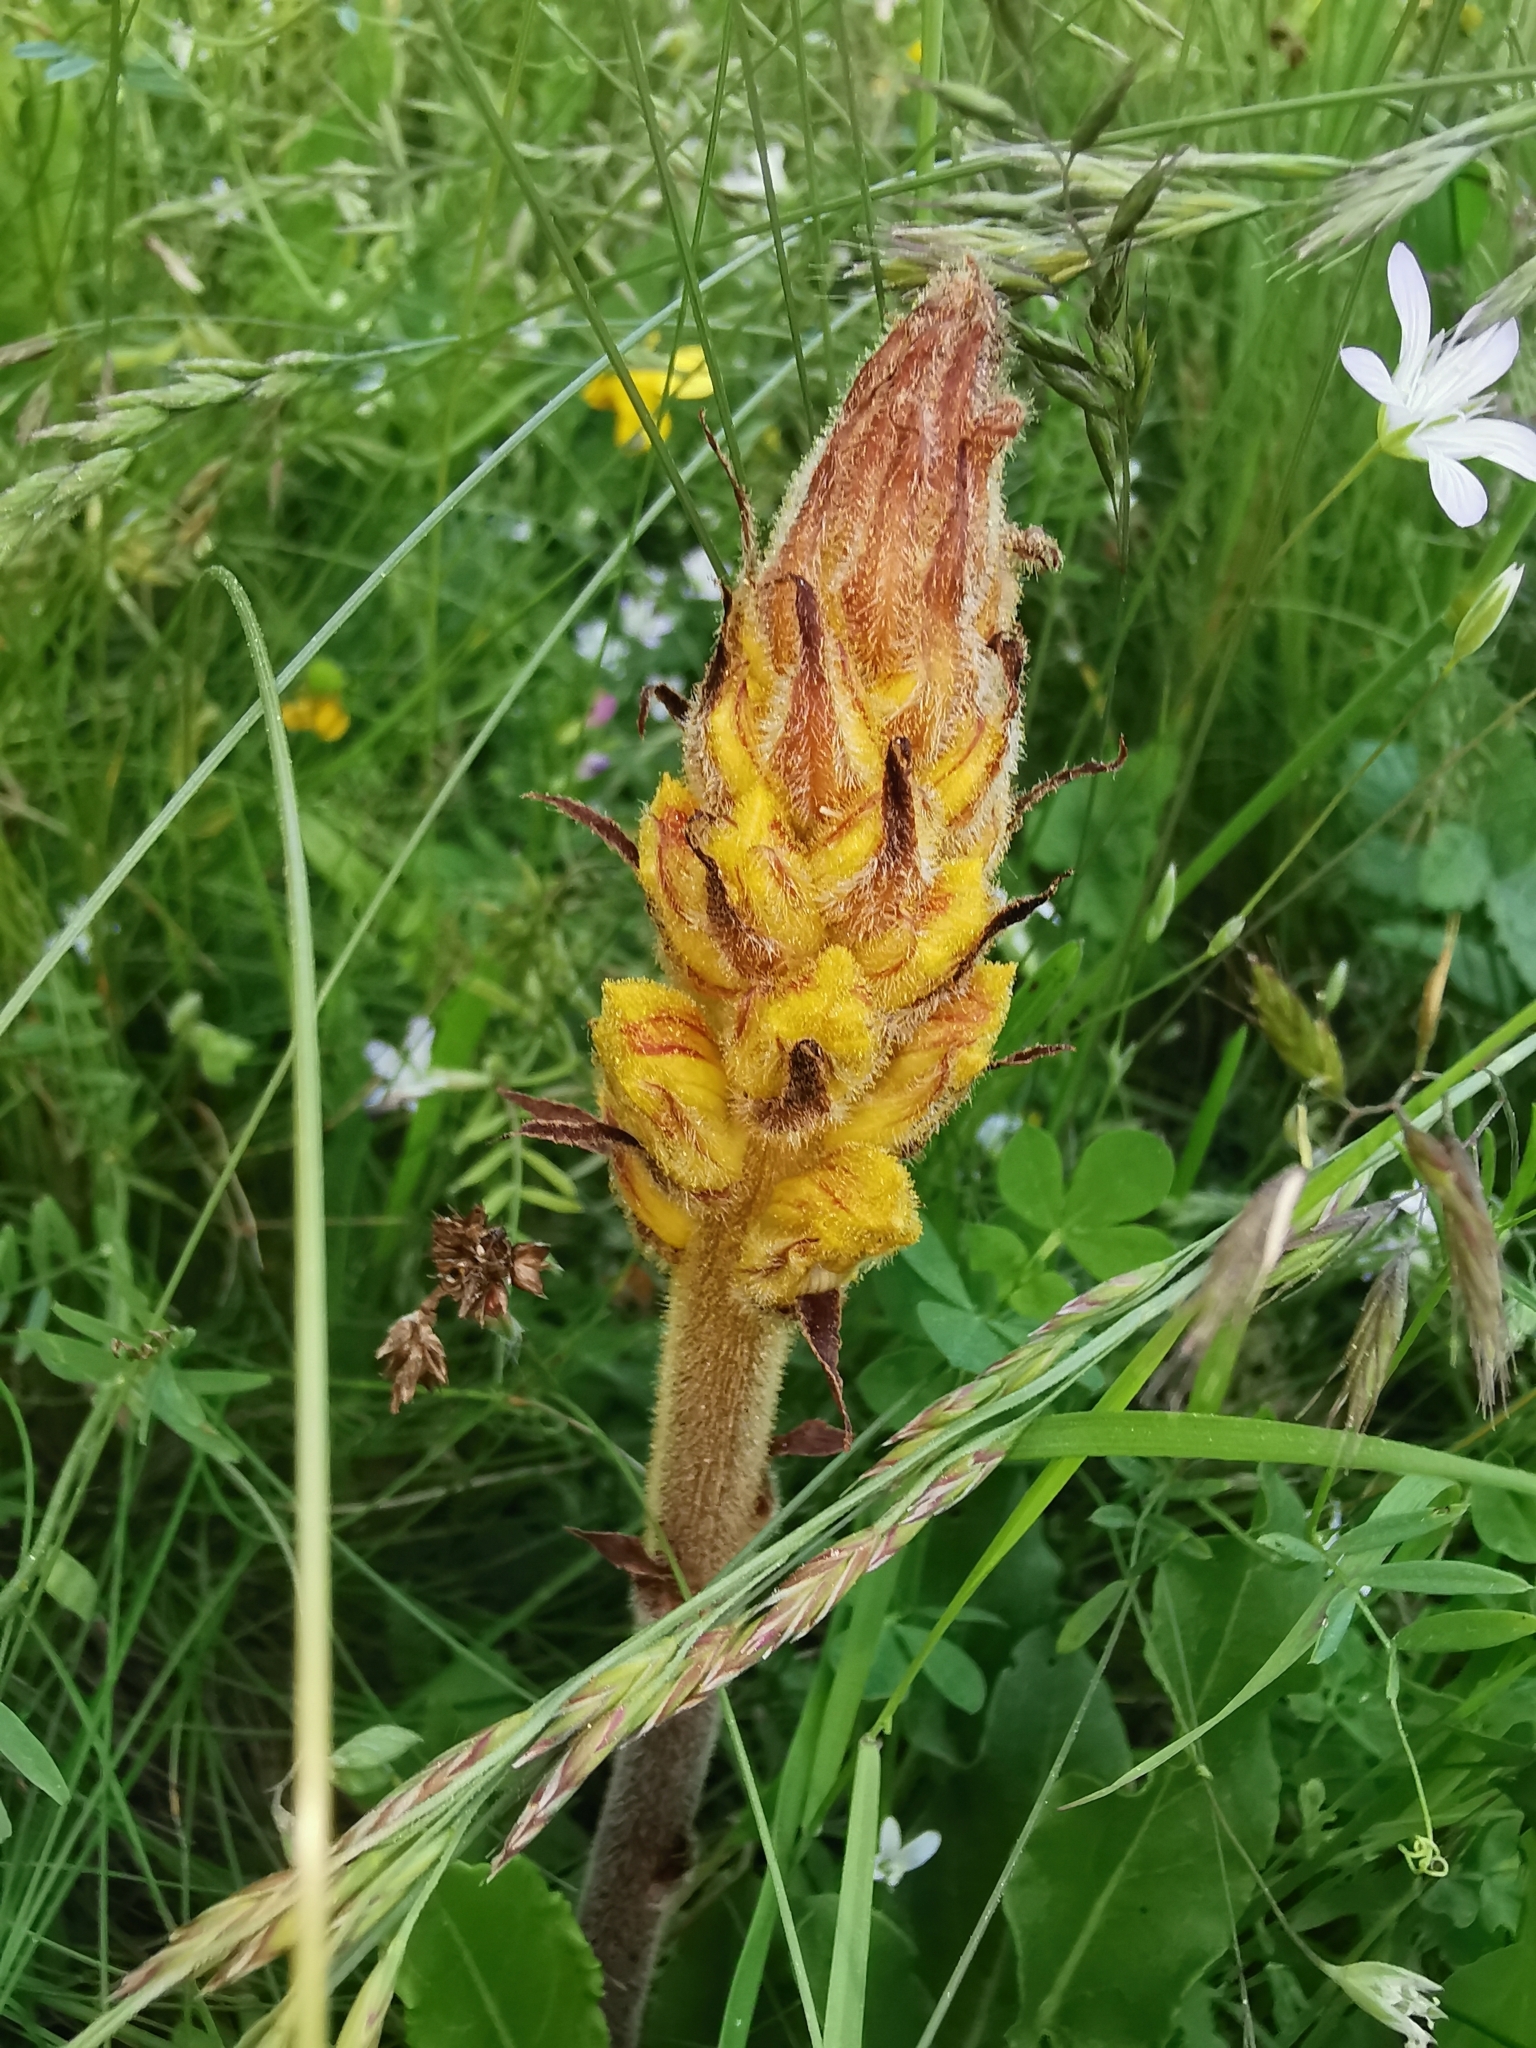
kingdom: Plantae
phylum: Tracheophyta
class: Magnoliopsida
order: Lamiales
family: Orobanchaceae
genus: Orobanche
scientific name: Orobanche gracilis
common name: Slender broomrape
